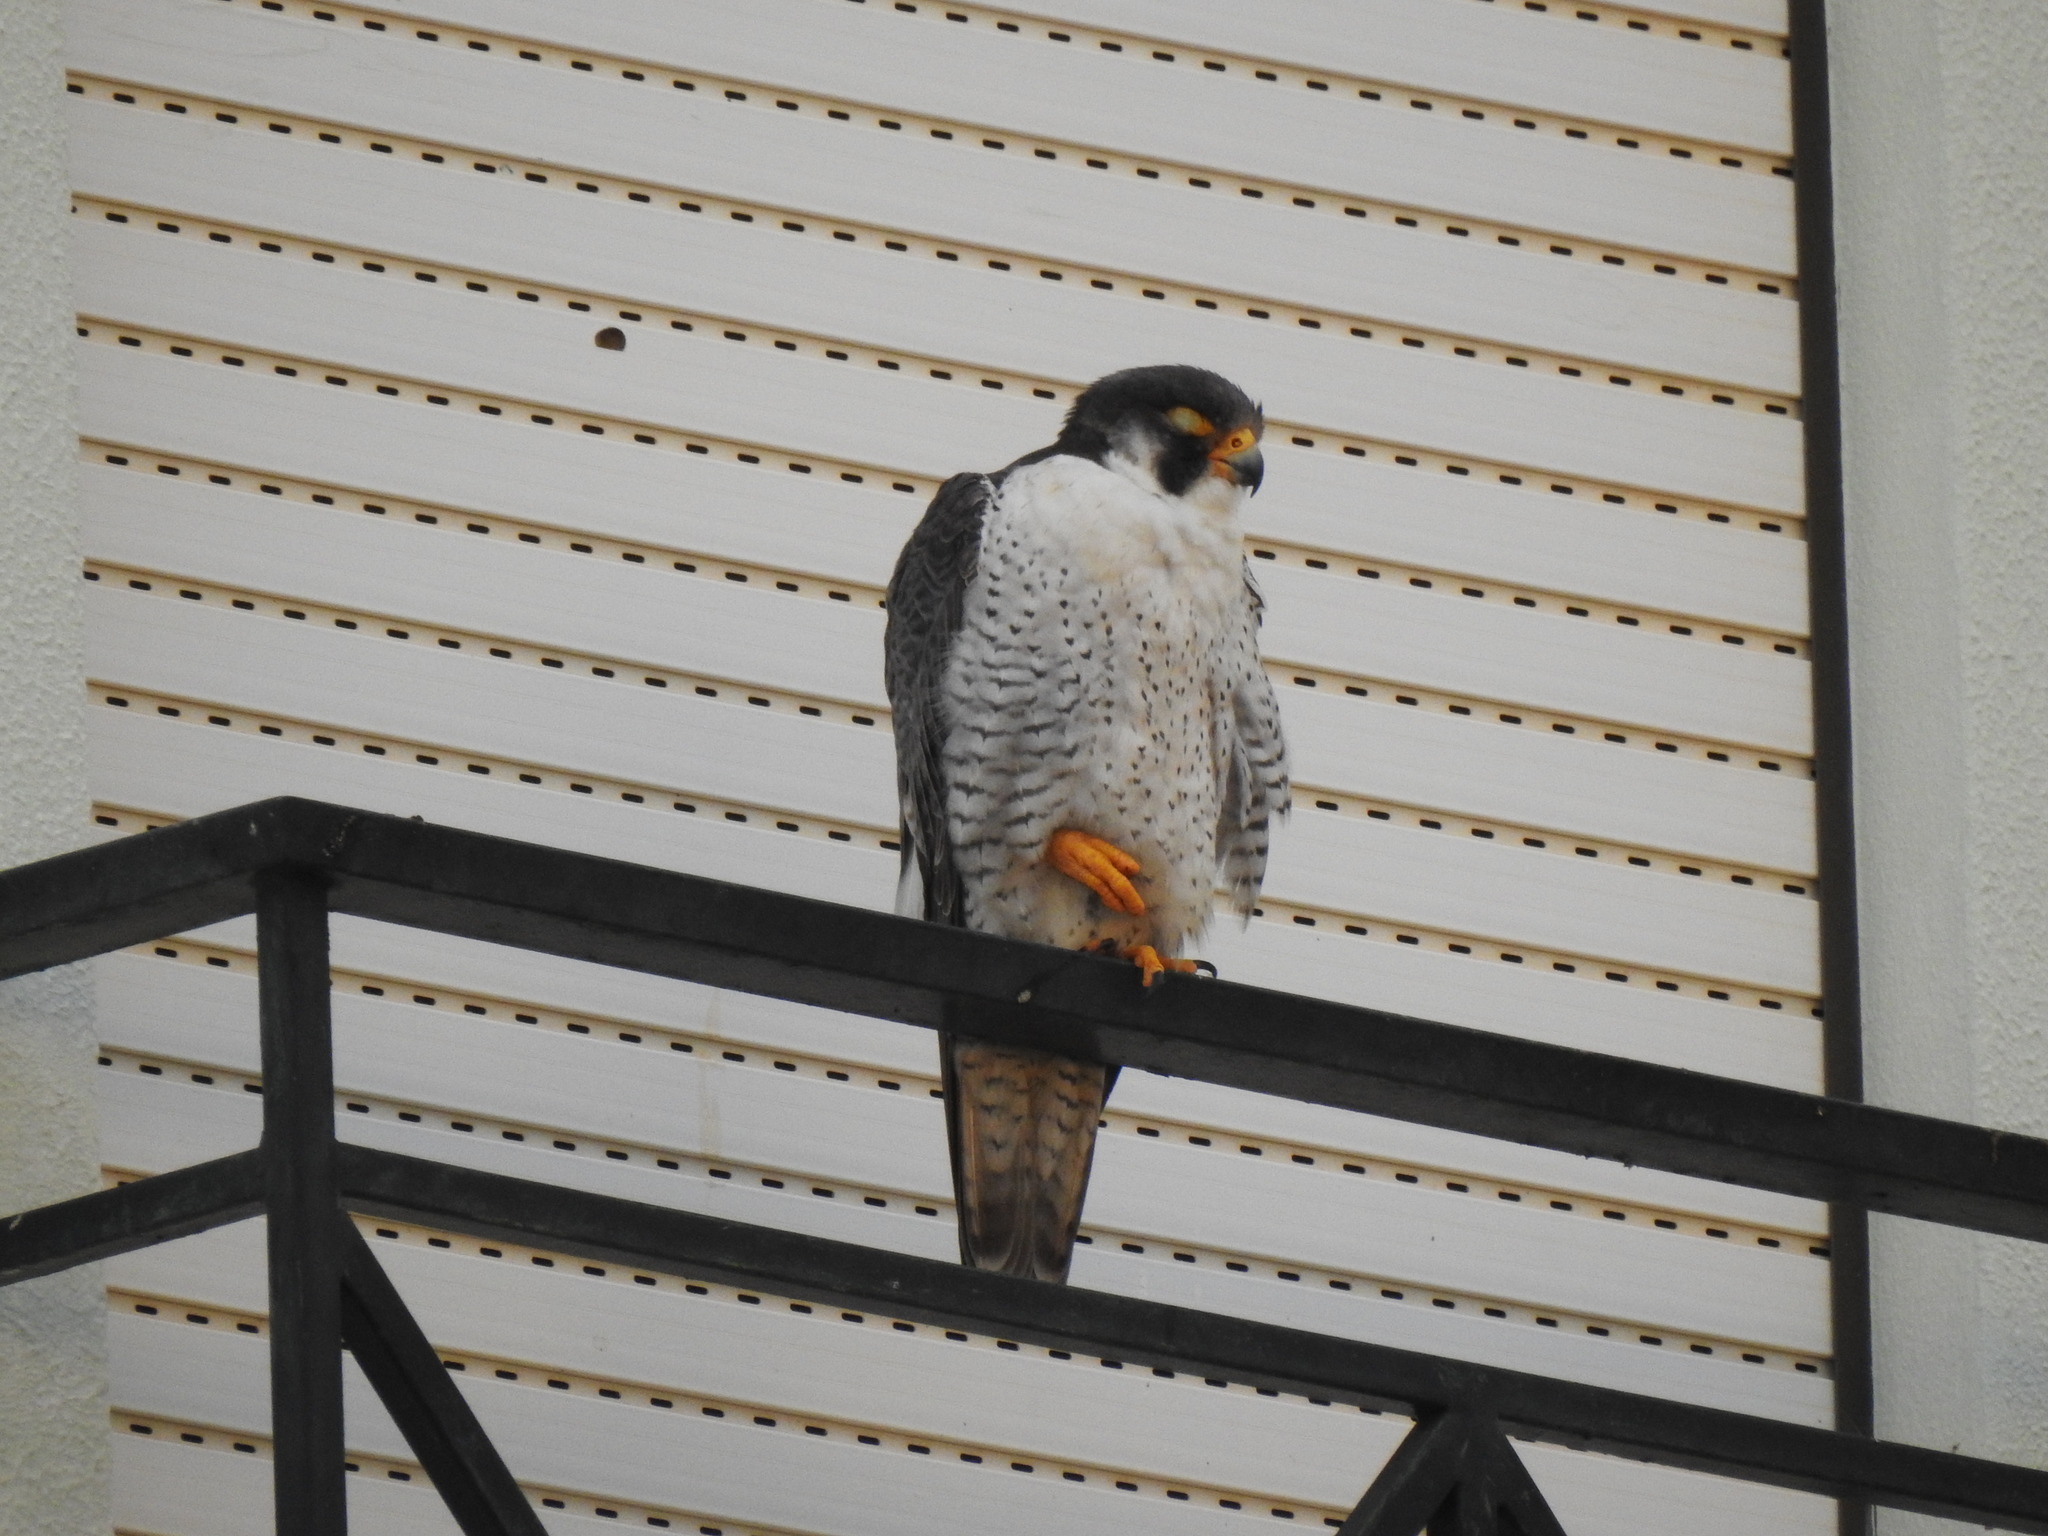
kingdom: Animalia
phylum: Chordata
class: Aves
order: Falconiformes
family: Falconidae
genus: Falco
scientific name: Falco peregrinus
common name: Peregrine falcon
